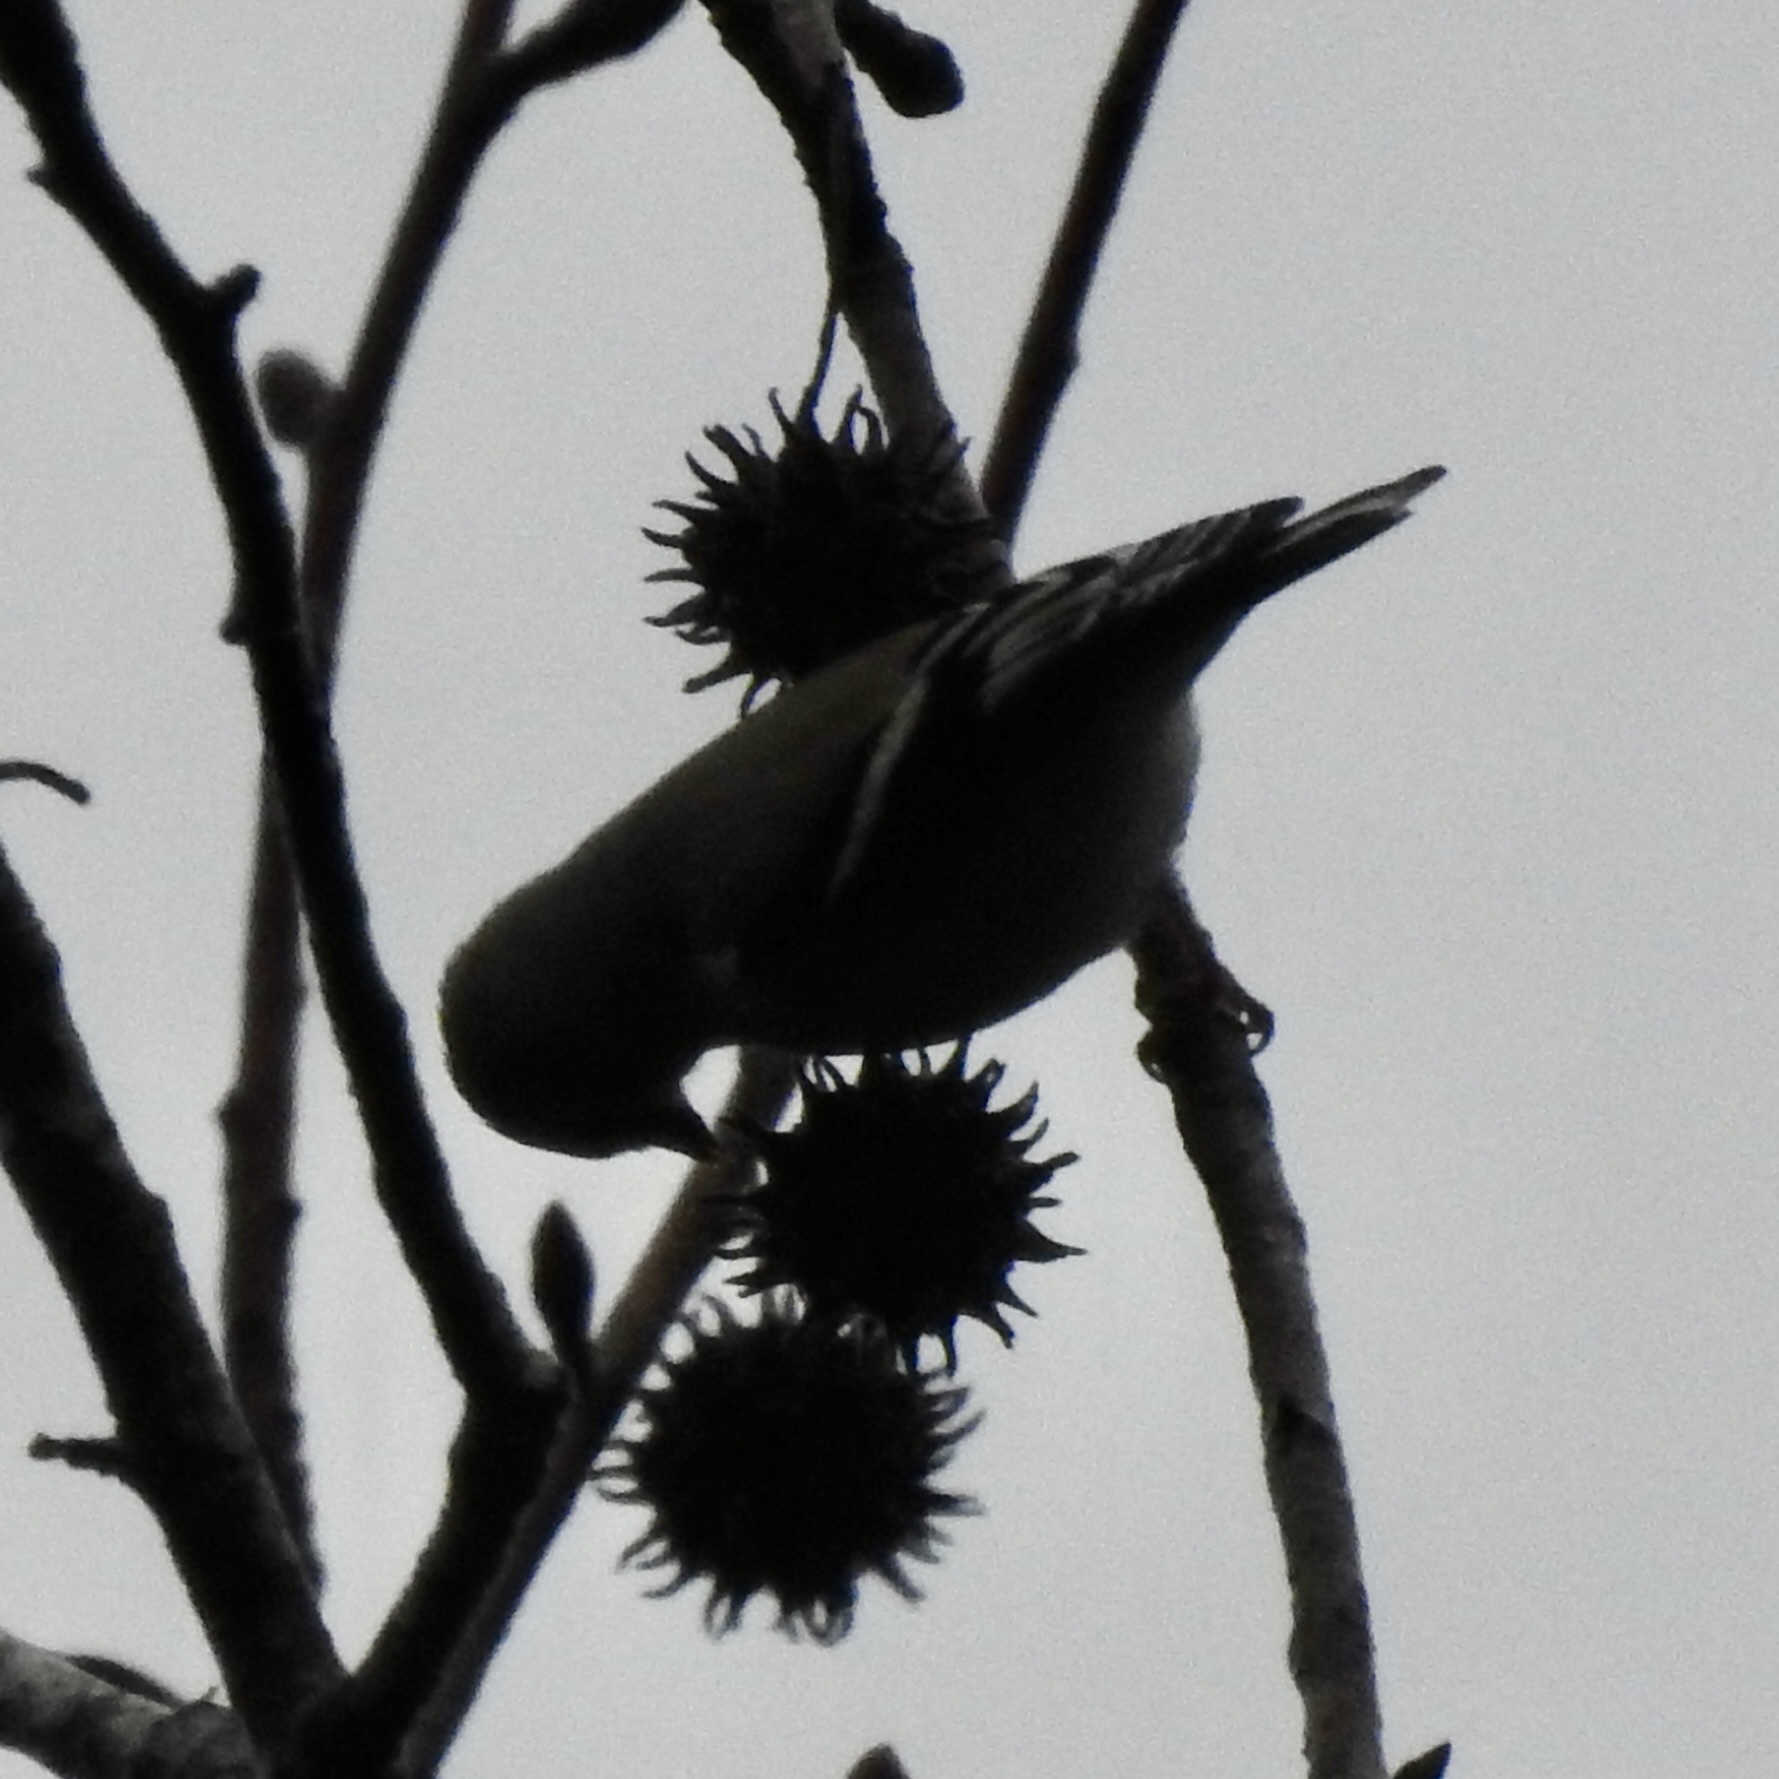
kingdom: Animalia
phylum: Chordata
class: Aves
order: Passeriformes
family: Fringillidae
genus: Spinus
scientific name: Spinus tristis
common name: American goldfinch
